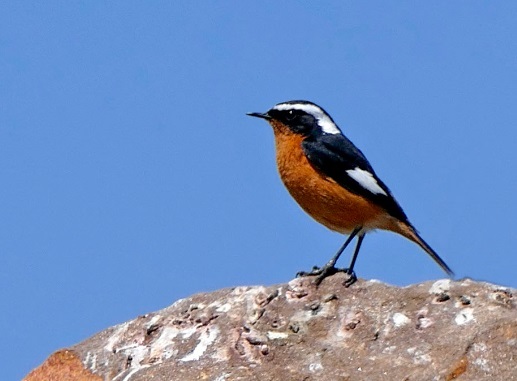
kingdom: Animalia
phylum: Chordata
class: Aves
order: Passeriformes
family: Muscicapidae
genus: Phoenicurus
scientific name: Phoenicurus moussieri
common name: Moussier's redstart
